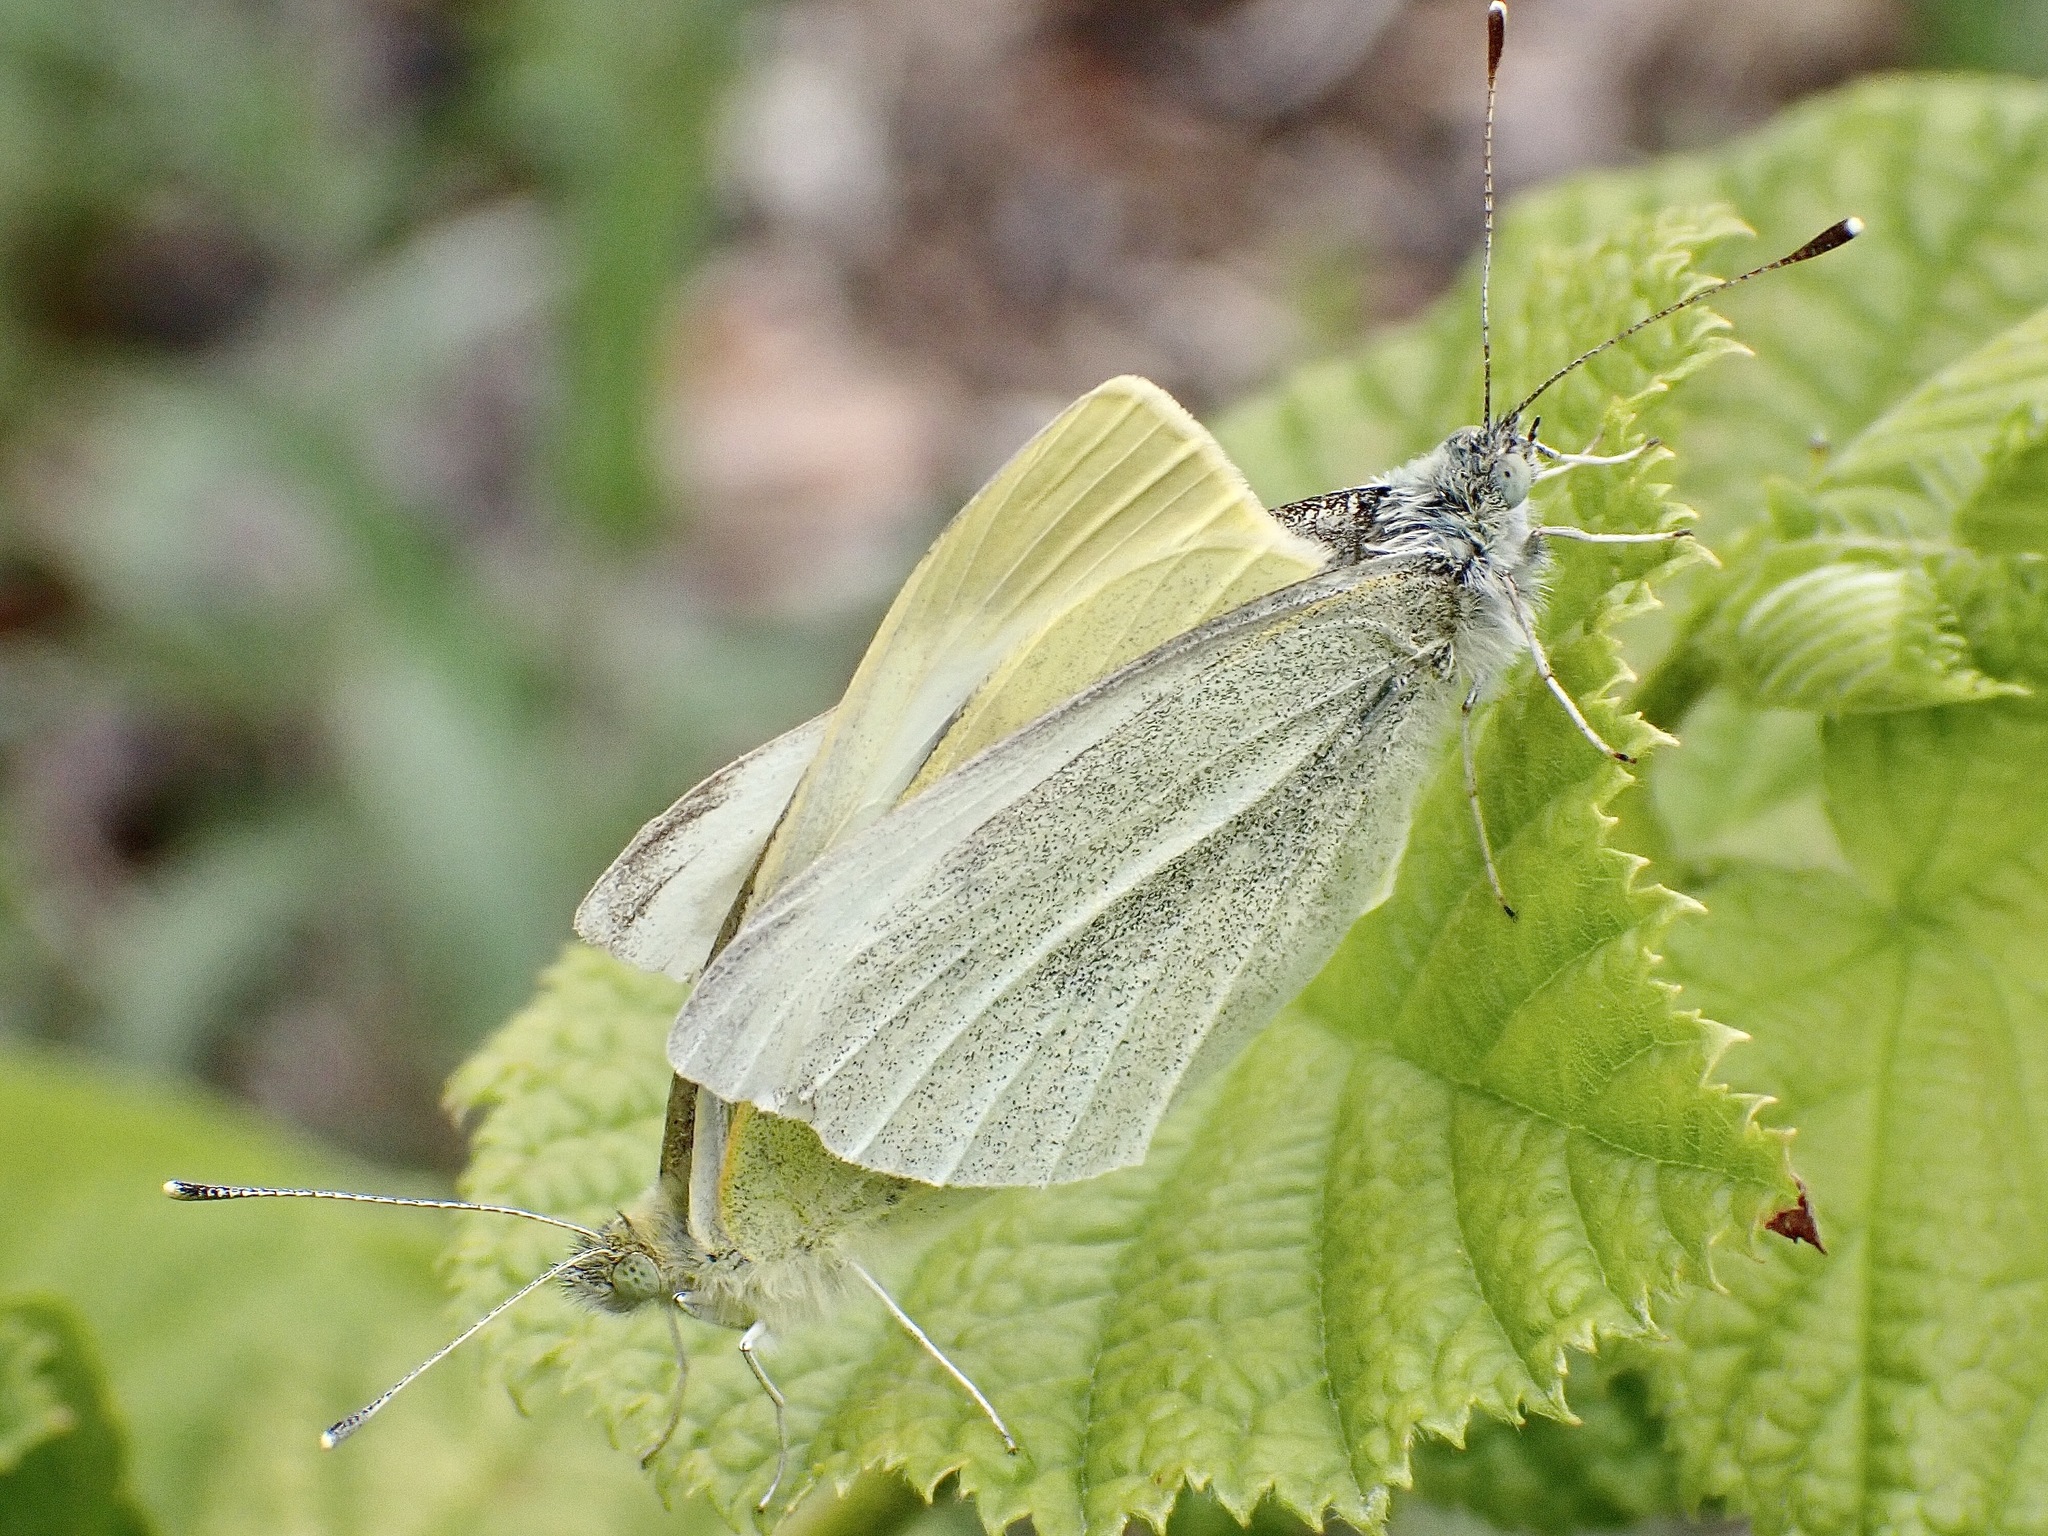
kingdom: Animalia
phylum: Arthropoda
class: Insecta
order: Lepidoptera
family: Pieridae
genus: Pieris
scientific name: Pieris rapae
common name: Small white
